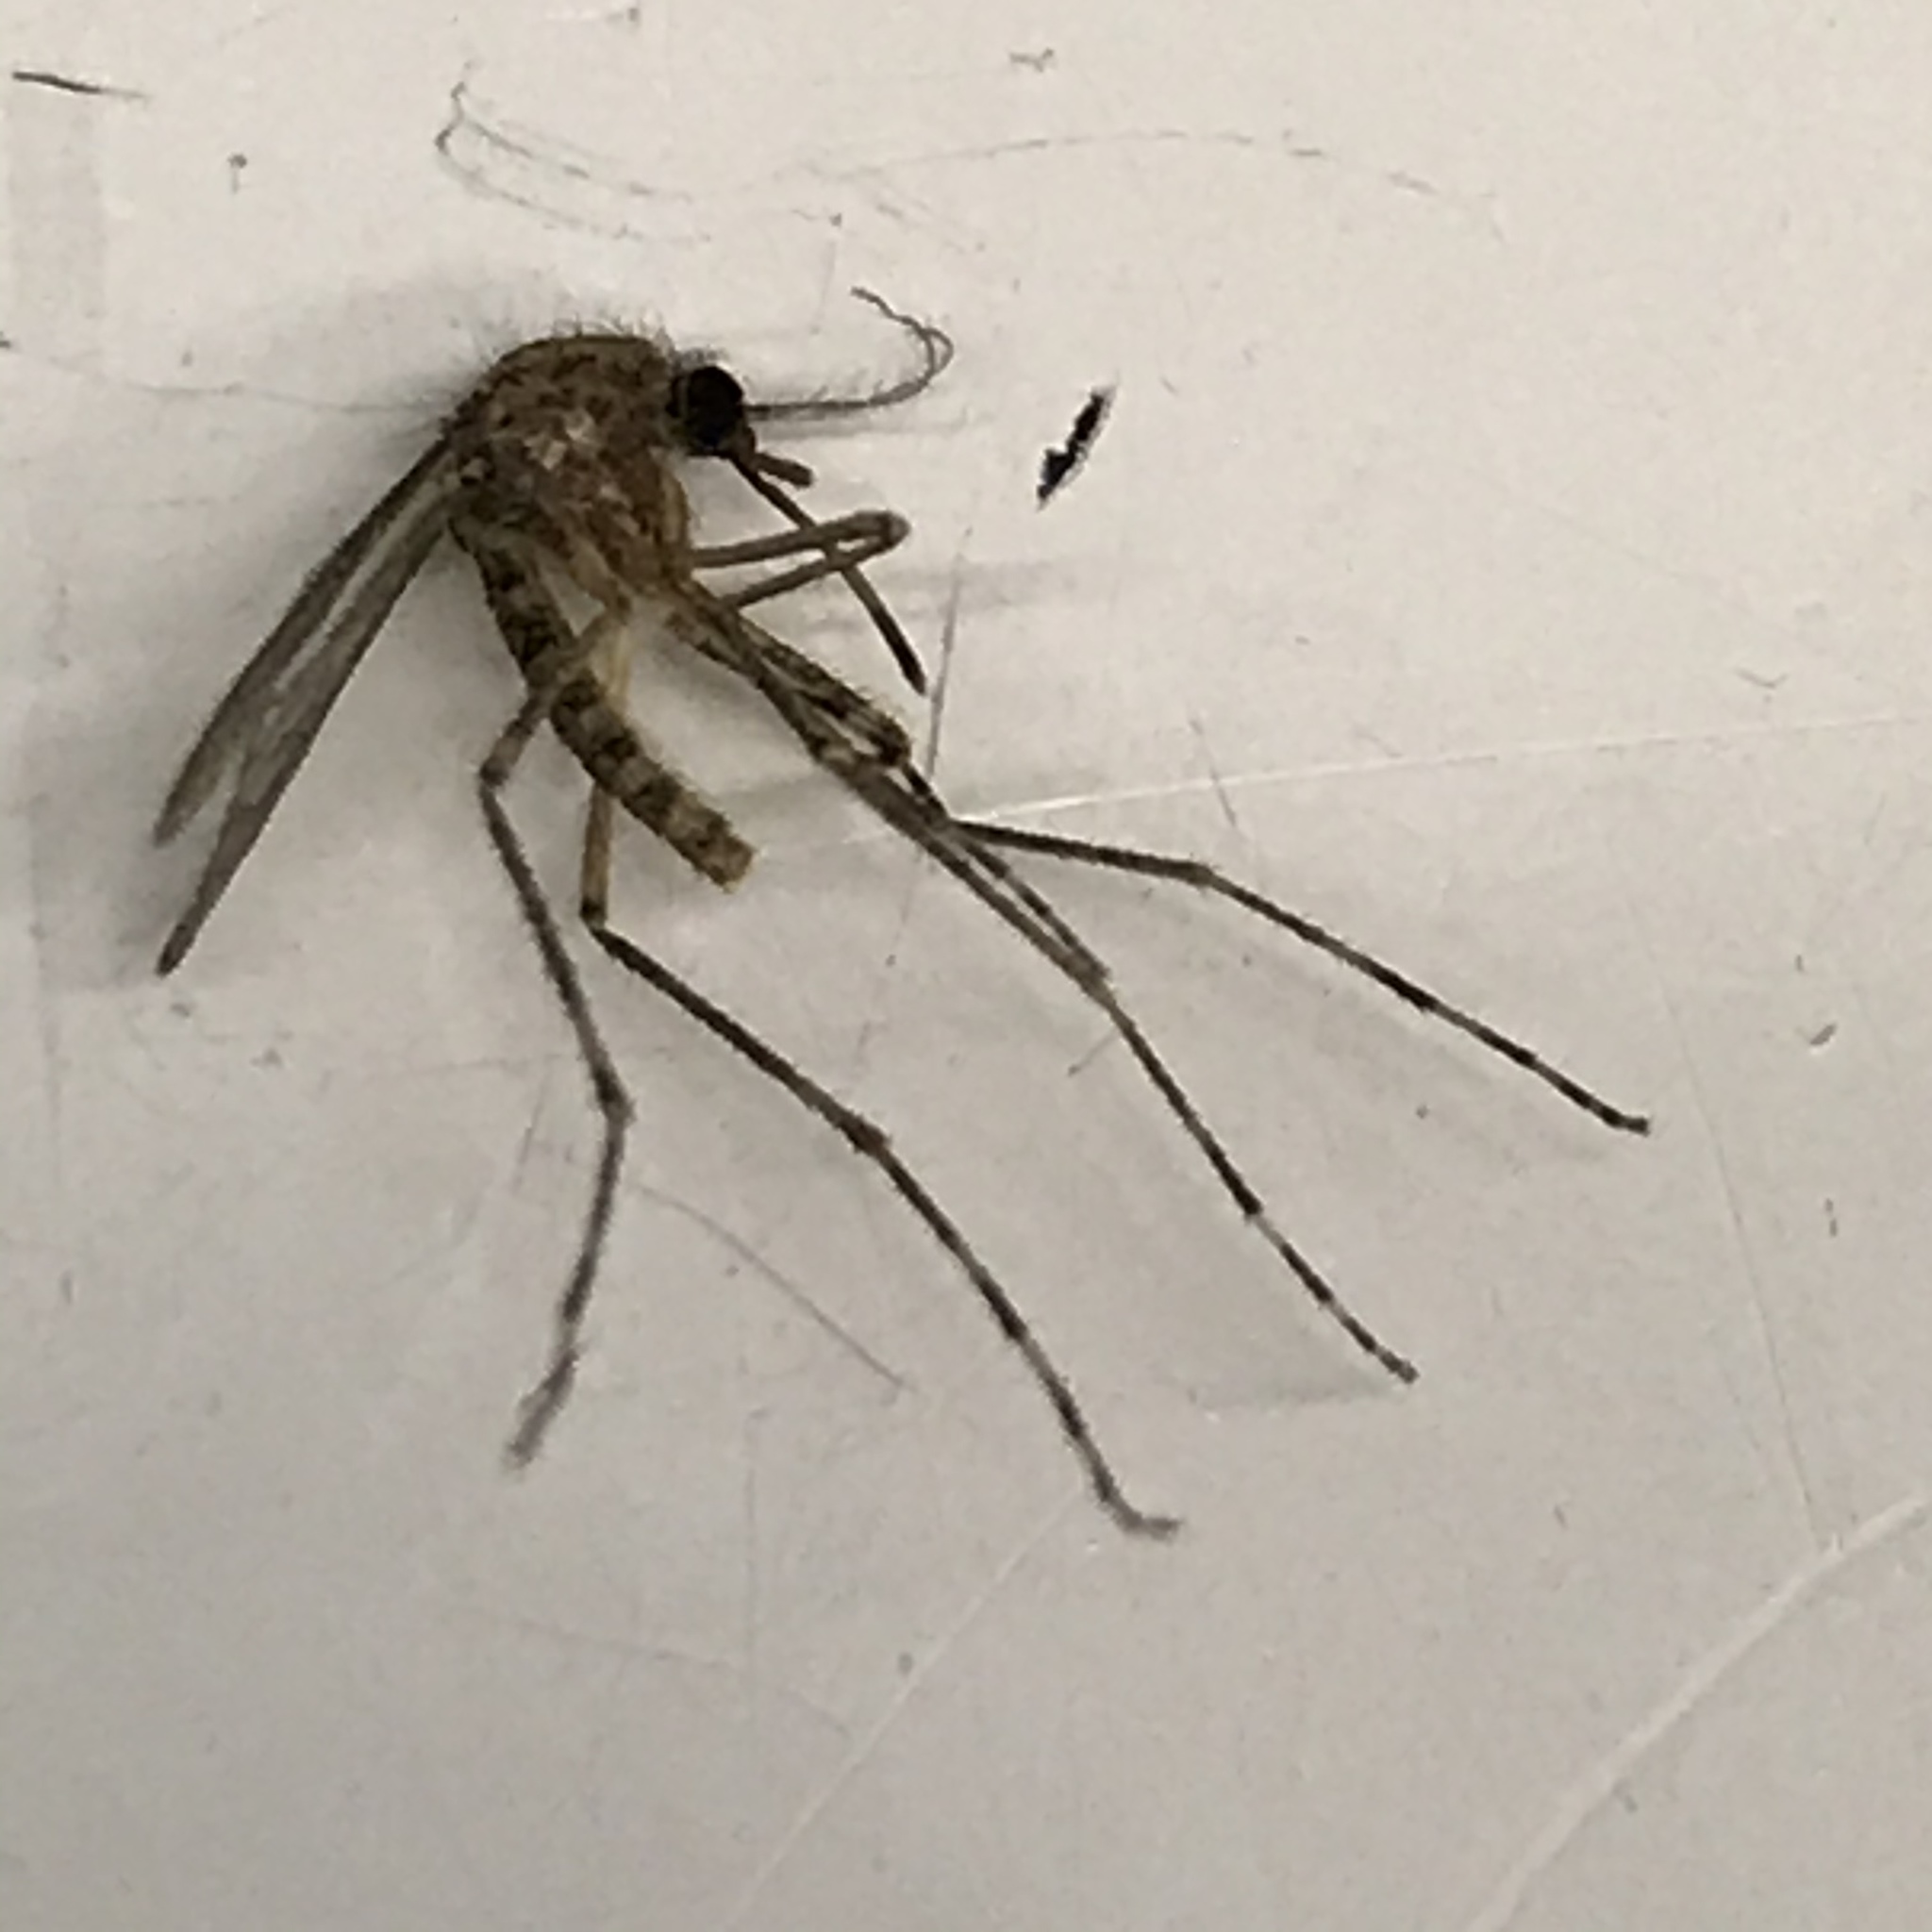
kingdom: Animalia
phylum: Arthropoda
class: Insecta
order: Diptera
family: Culicidae
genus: Coquillettidia
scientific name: Coquillettidia perturbans
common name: Cattail mosquito
